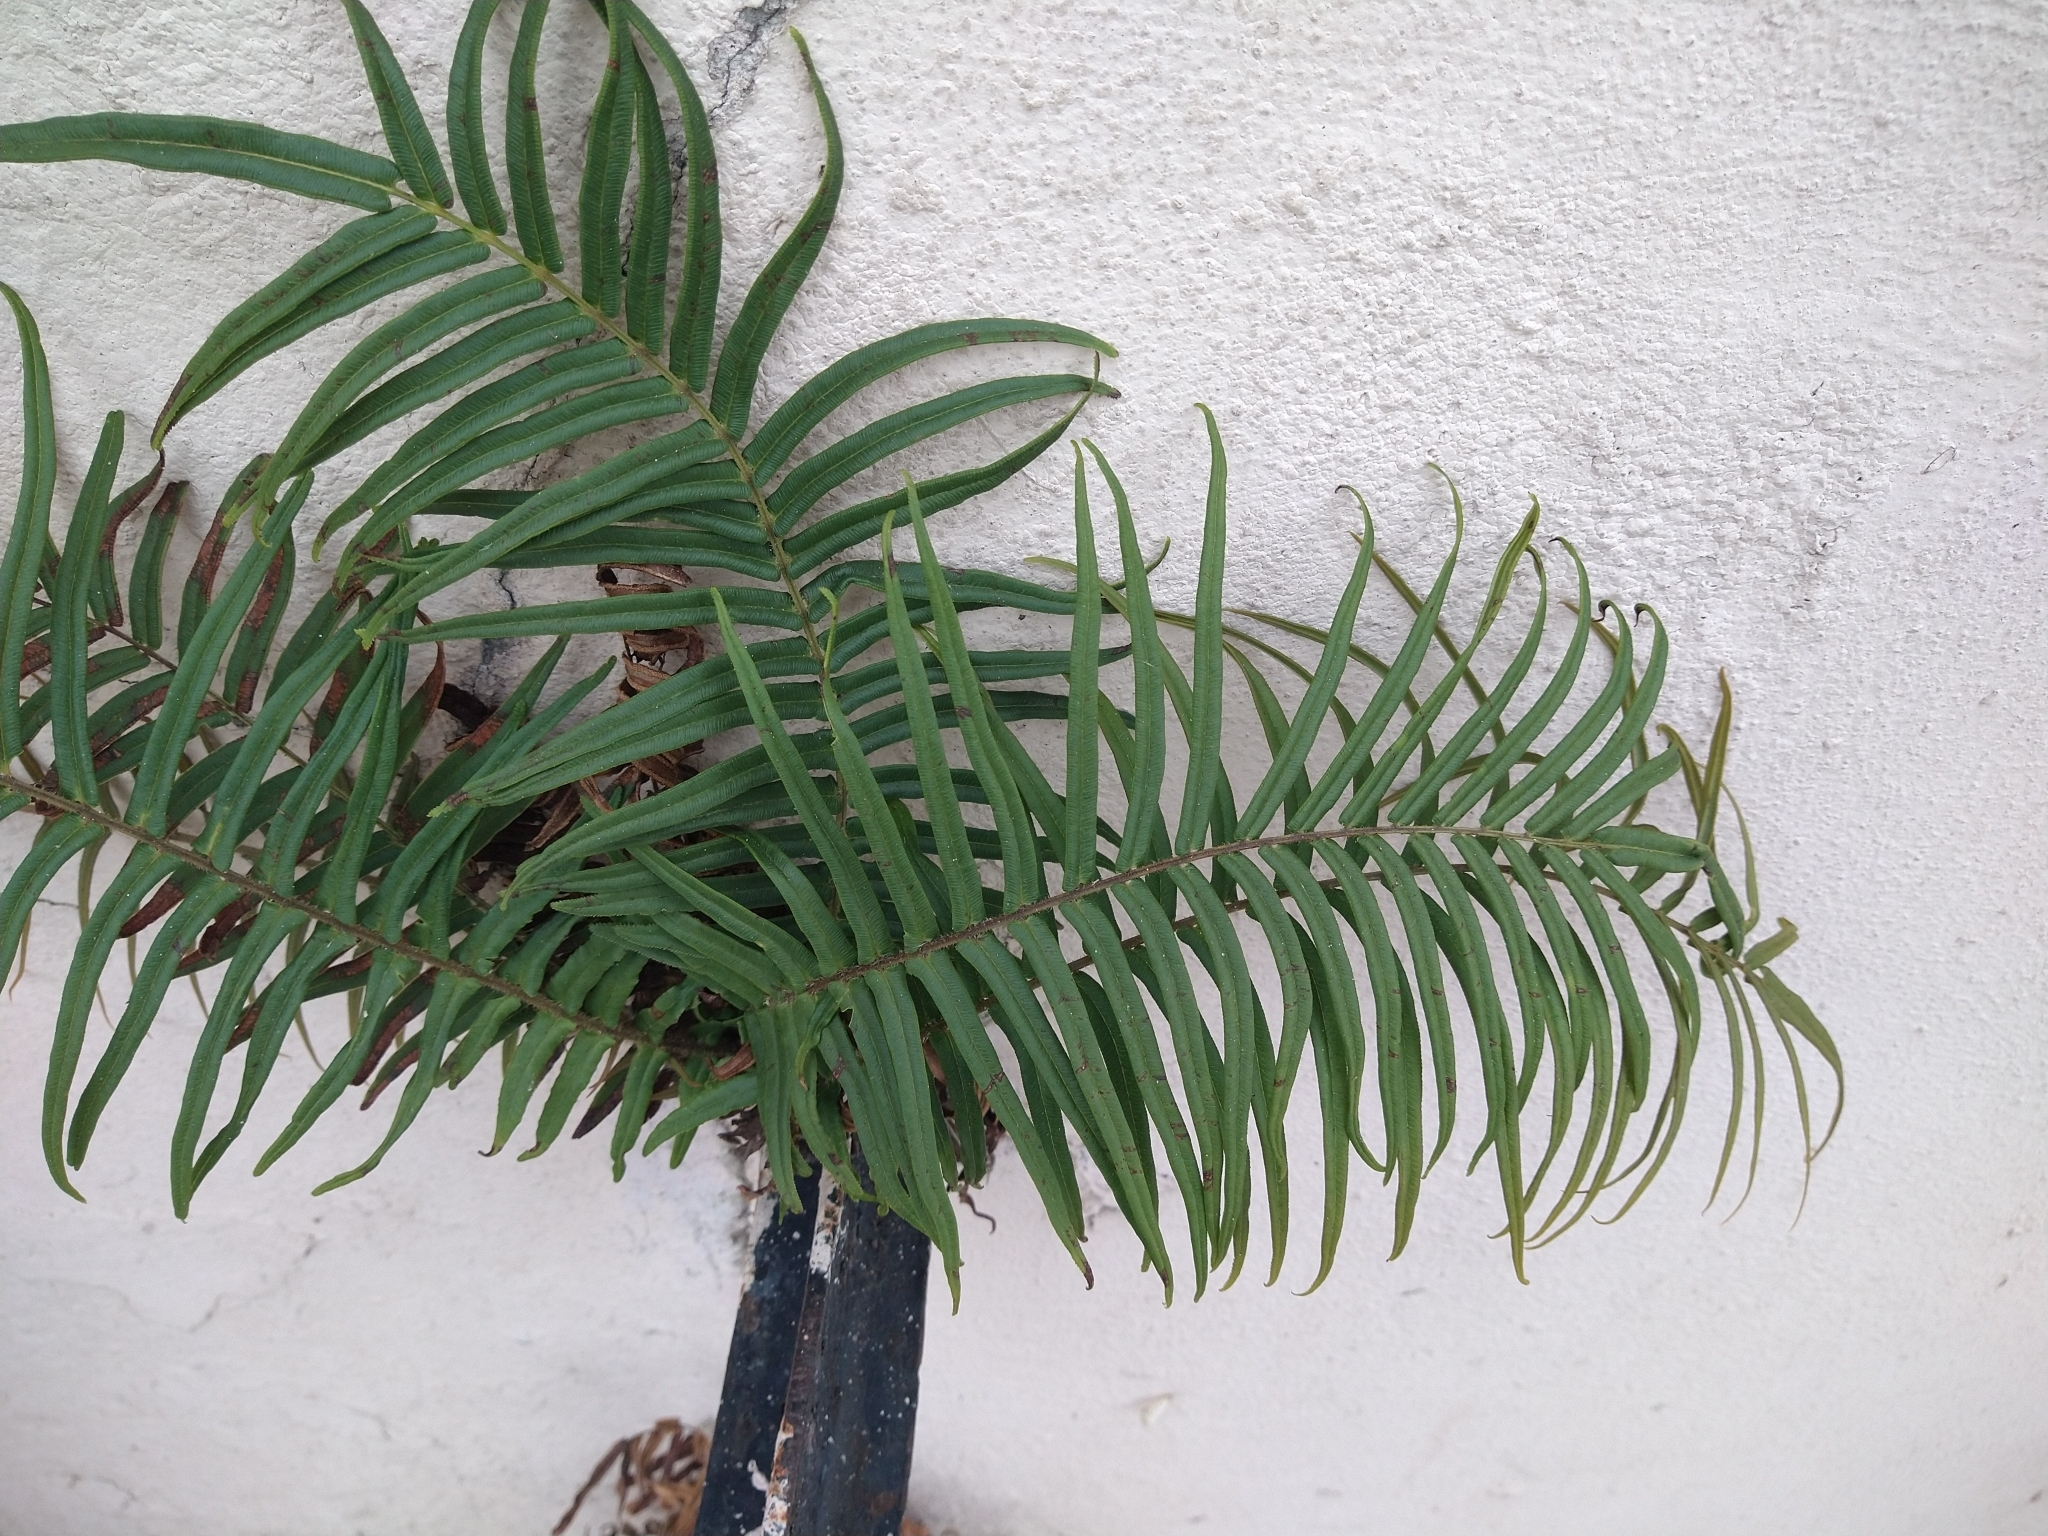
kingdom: Plantae
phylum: Tracheophyta
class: Polypodiopsida
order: Polypodiales
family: Pteridaceae
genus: Pteris
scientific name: Pteris vittata
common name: Ladder brake
